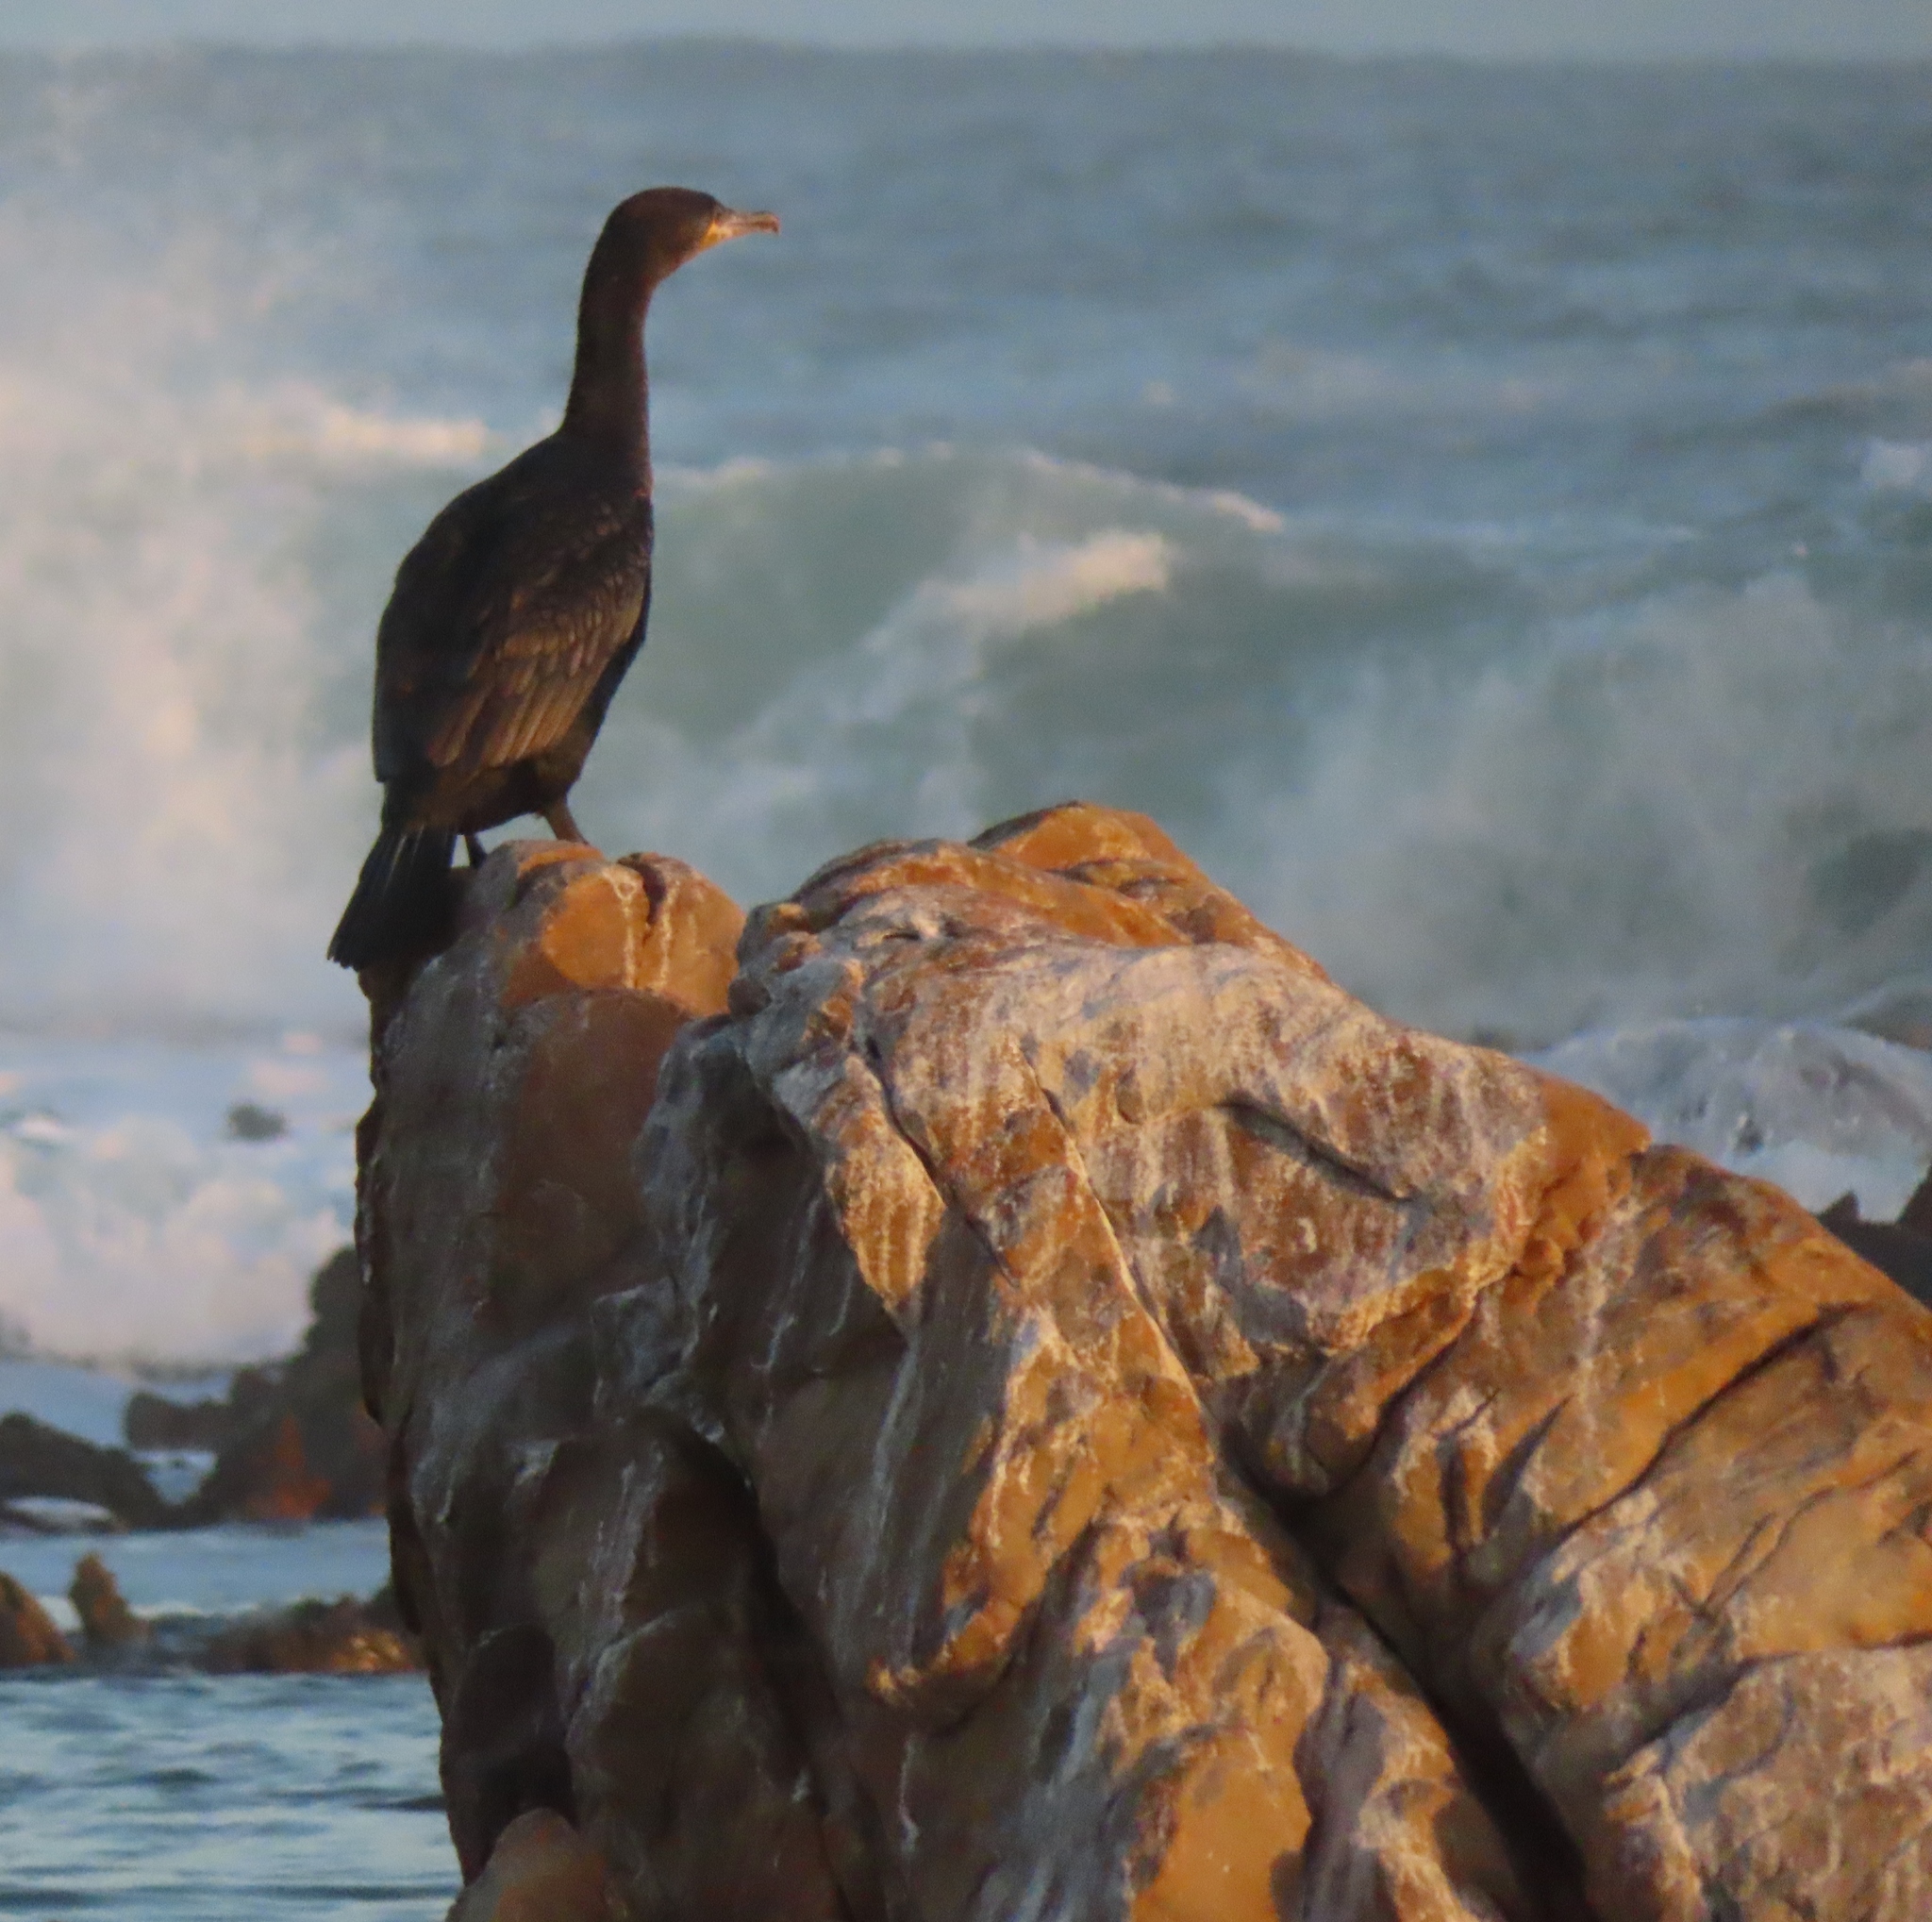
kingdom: Animalia
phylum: Chordata
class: Aves
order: Suliformes
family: Phalacrocoracidae
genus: Phalacrocorax
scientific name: Phalacrocorax capensis
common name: Cape cormorant
